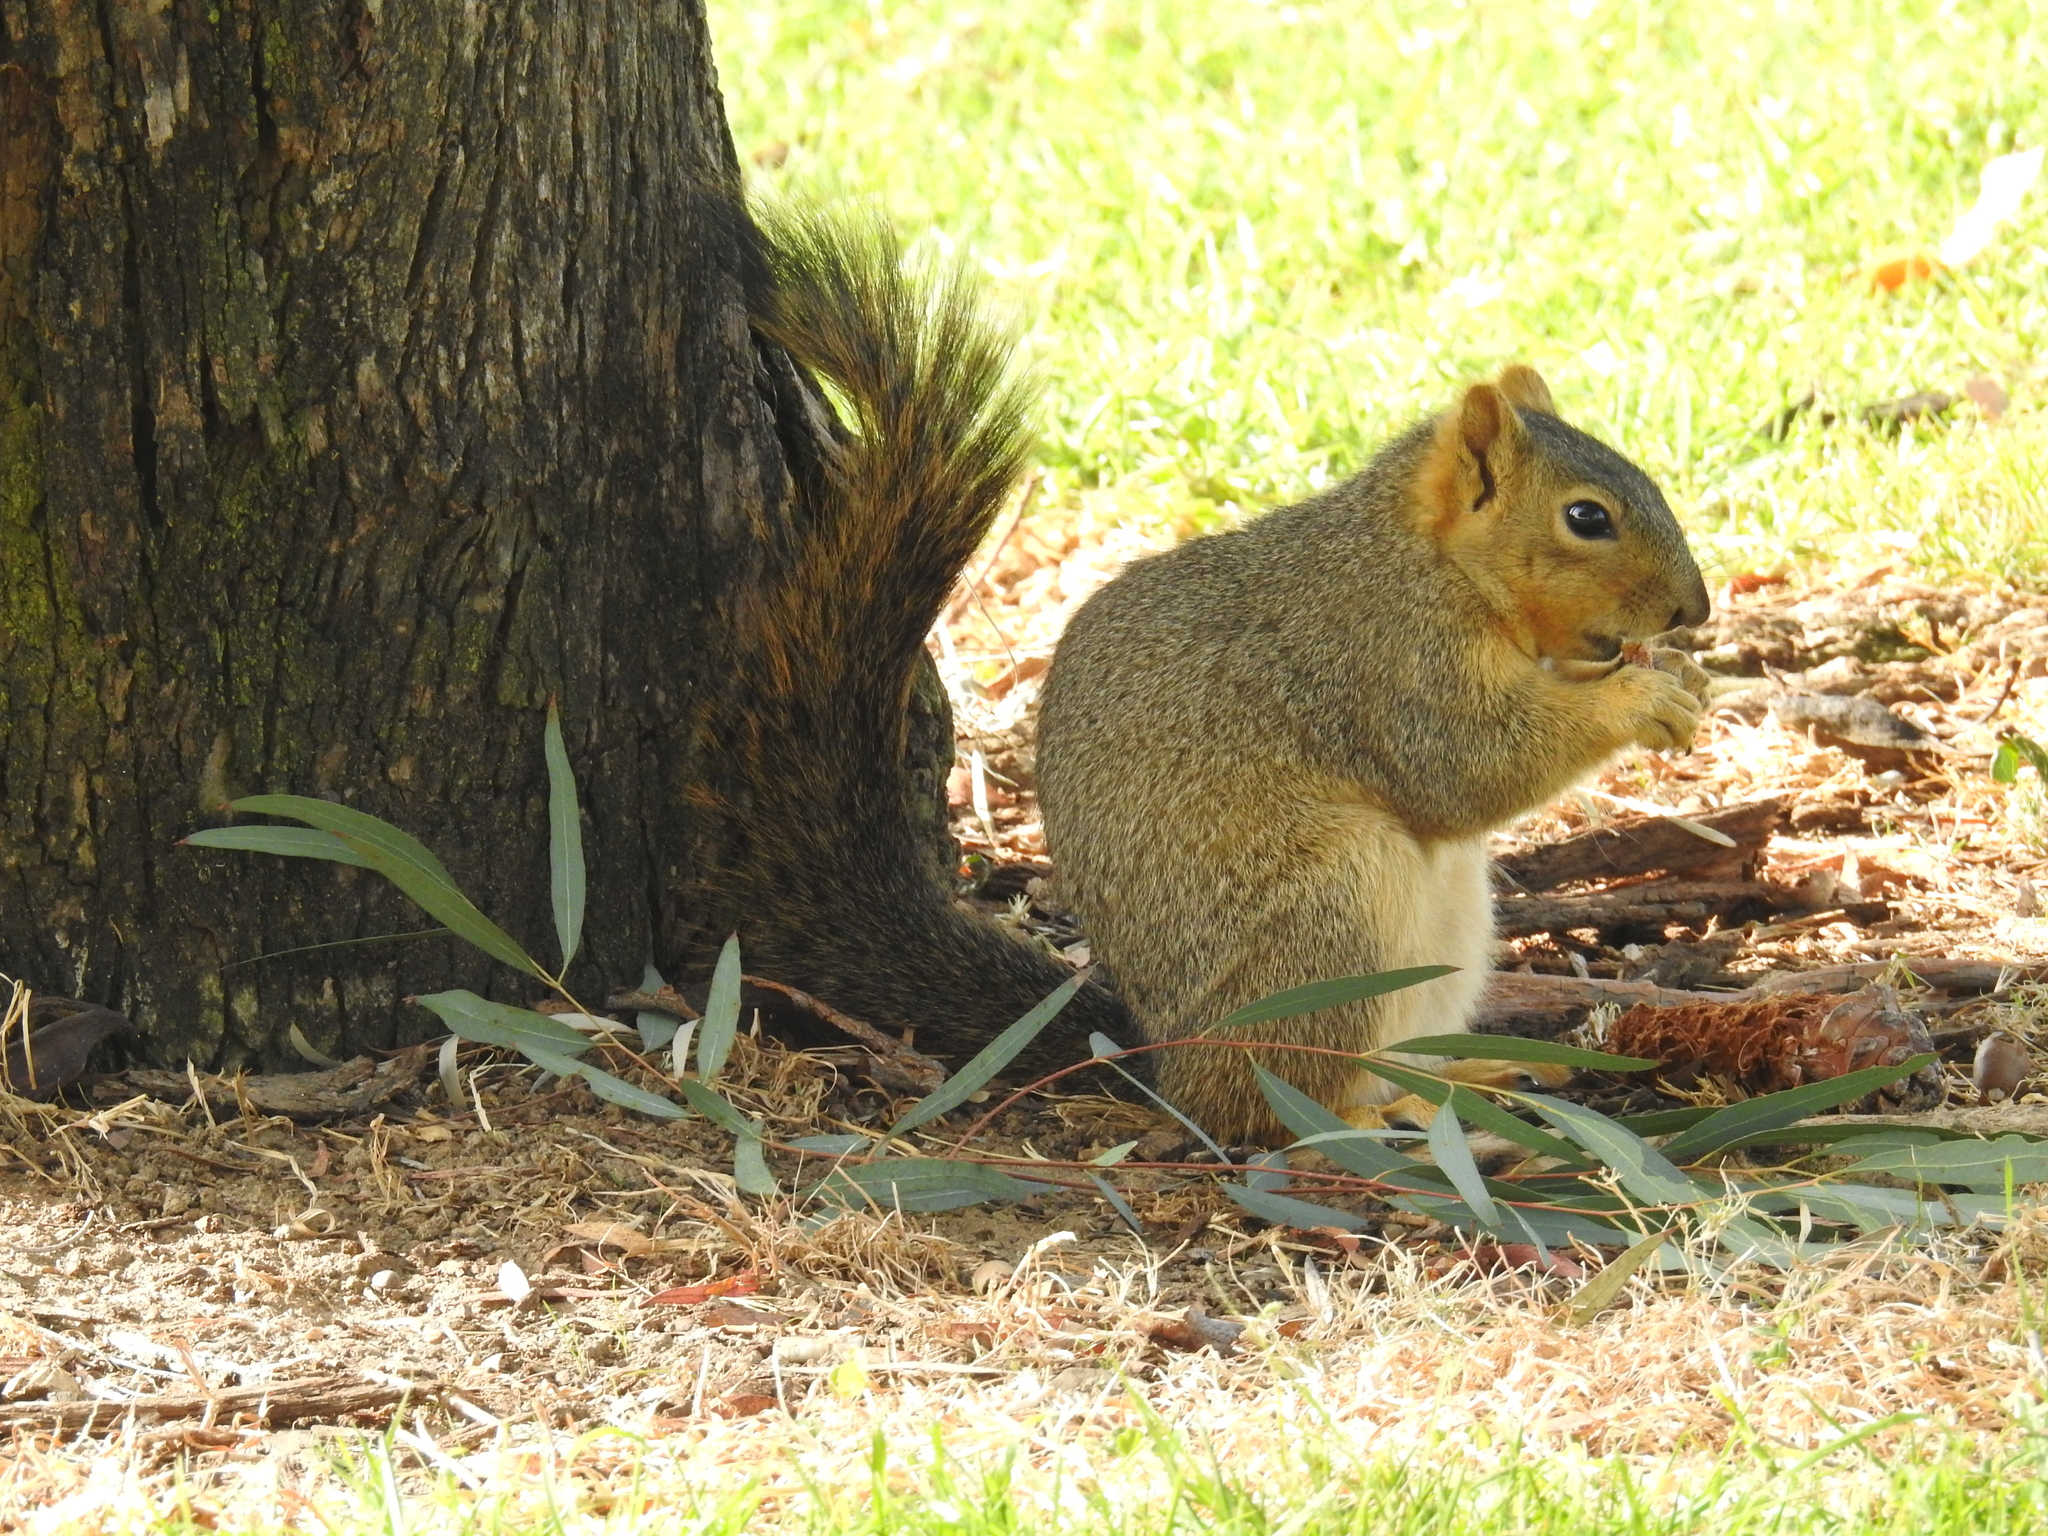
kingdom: Animalia
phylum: Chordata
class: Mammalia
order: Rodentia
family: Sciuridae
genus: Sciurus
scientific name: Sciurus niger
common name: Fox squirrel
